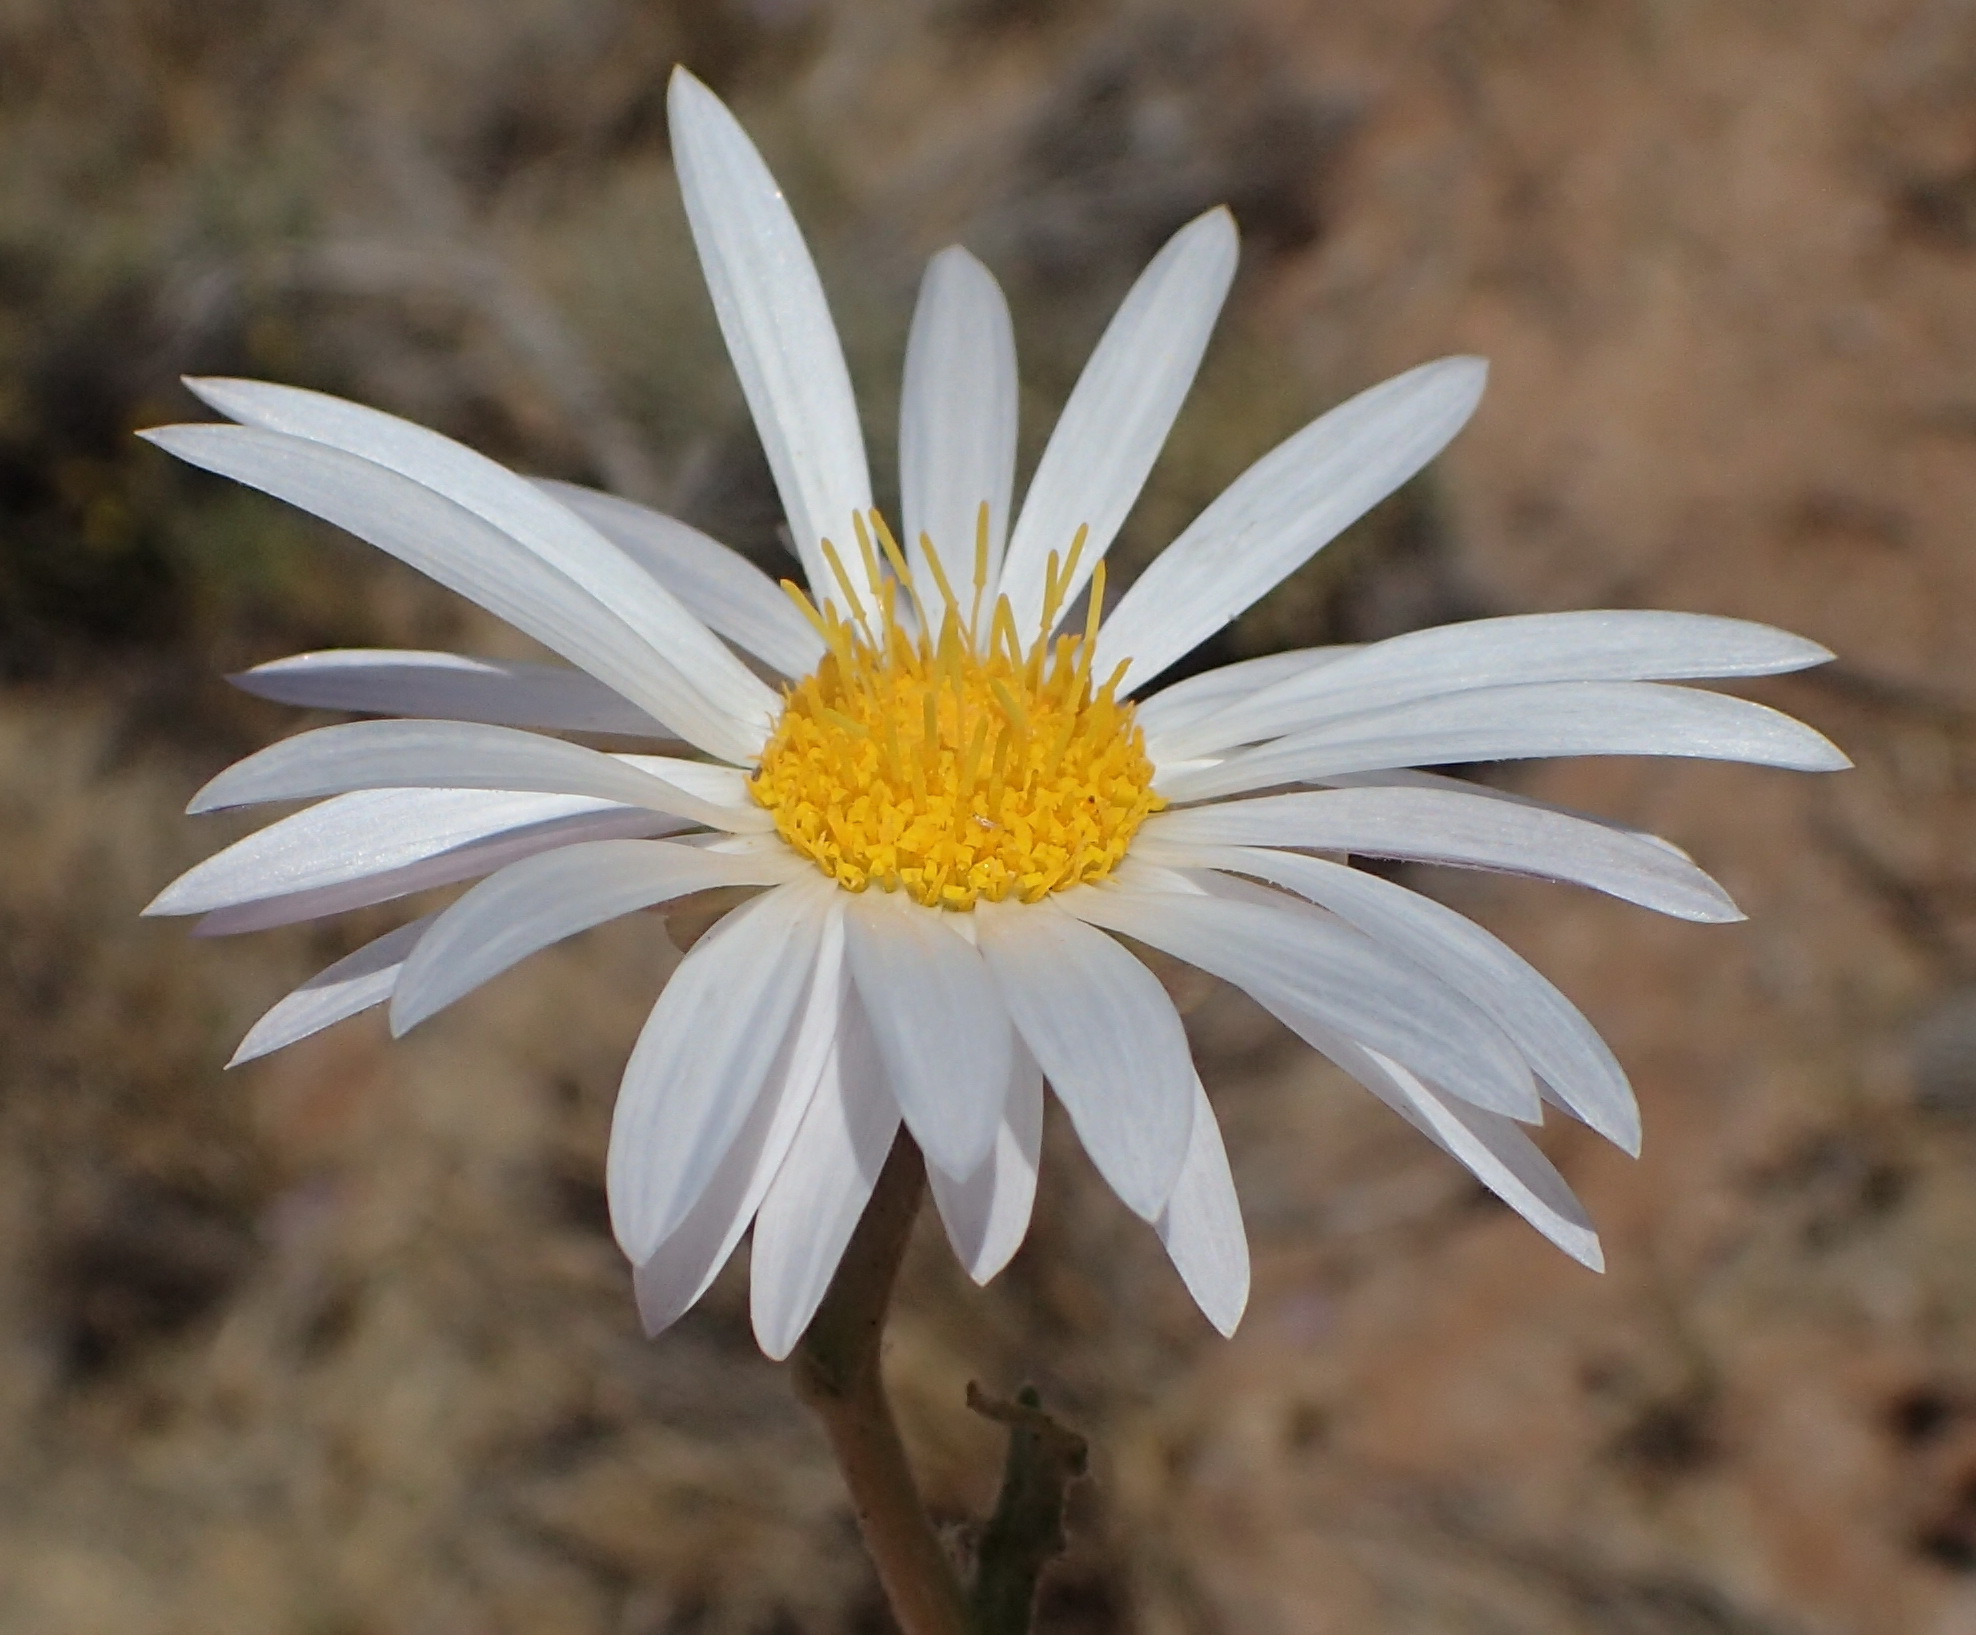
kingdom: Plantae
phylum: Tracheophyta
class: Magnoliopsida
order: Asterales
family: Asteraceae
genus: Arctotis
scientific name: Arctotis leiocarpa
